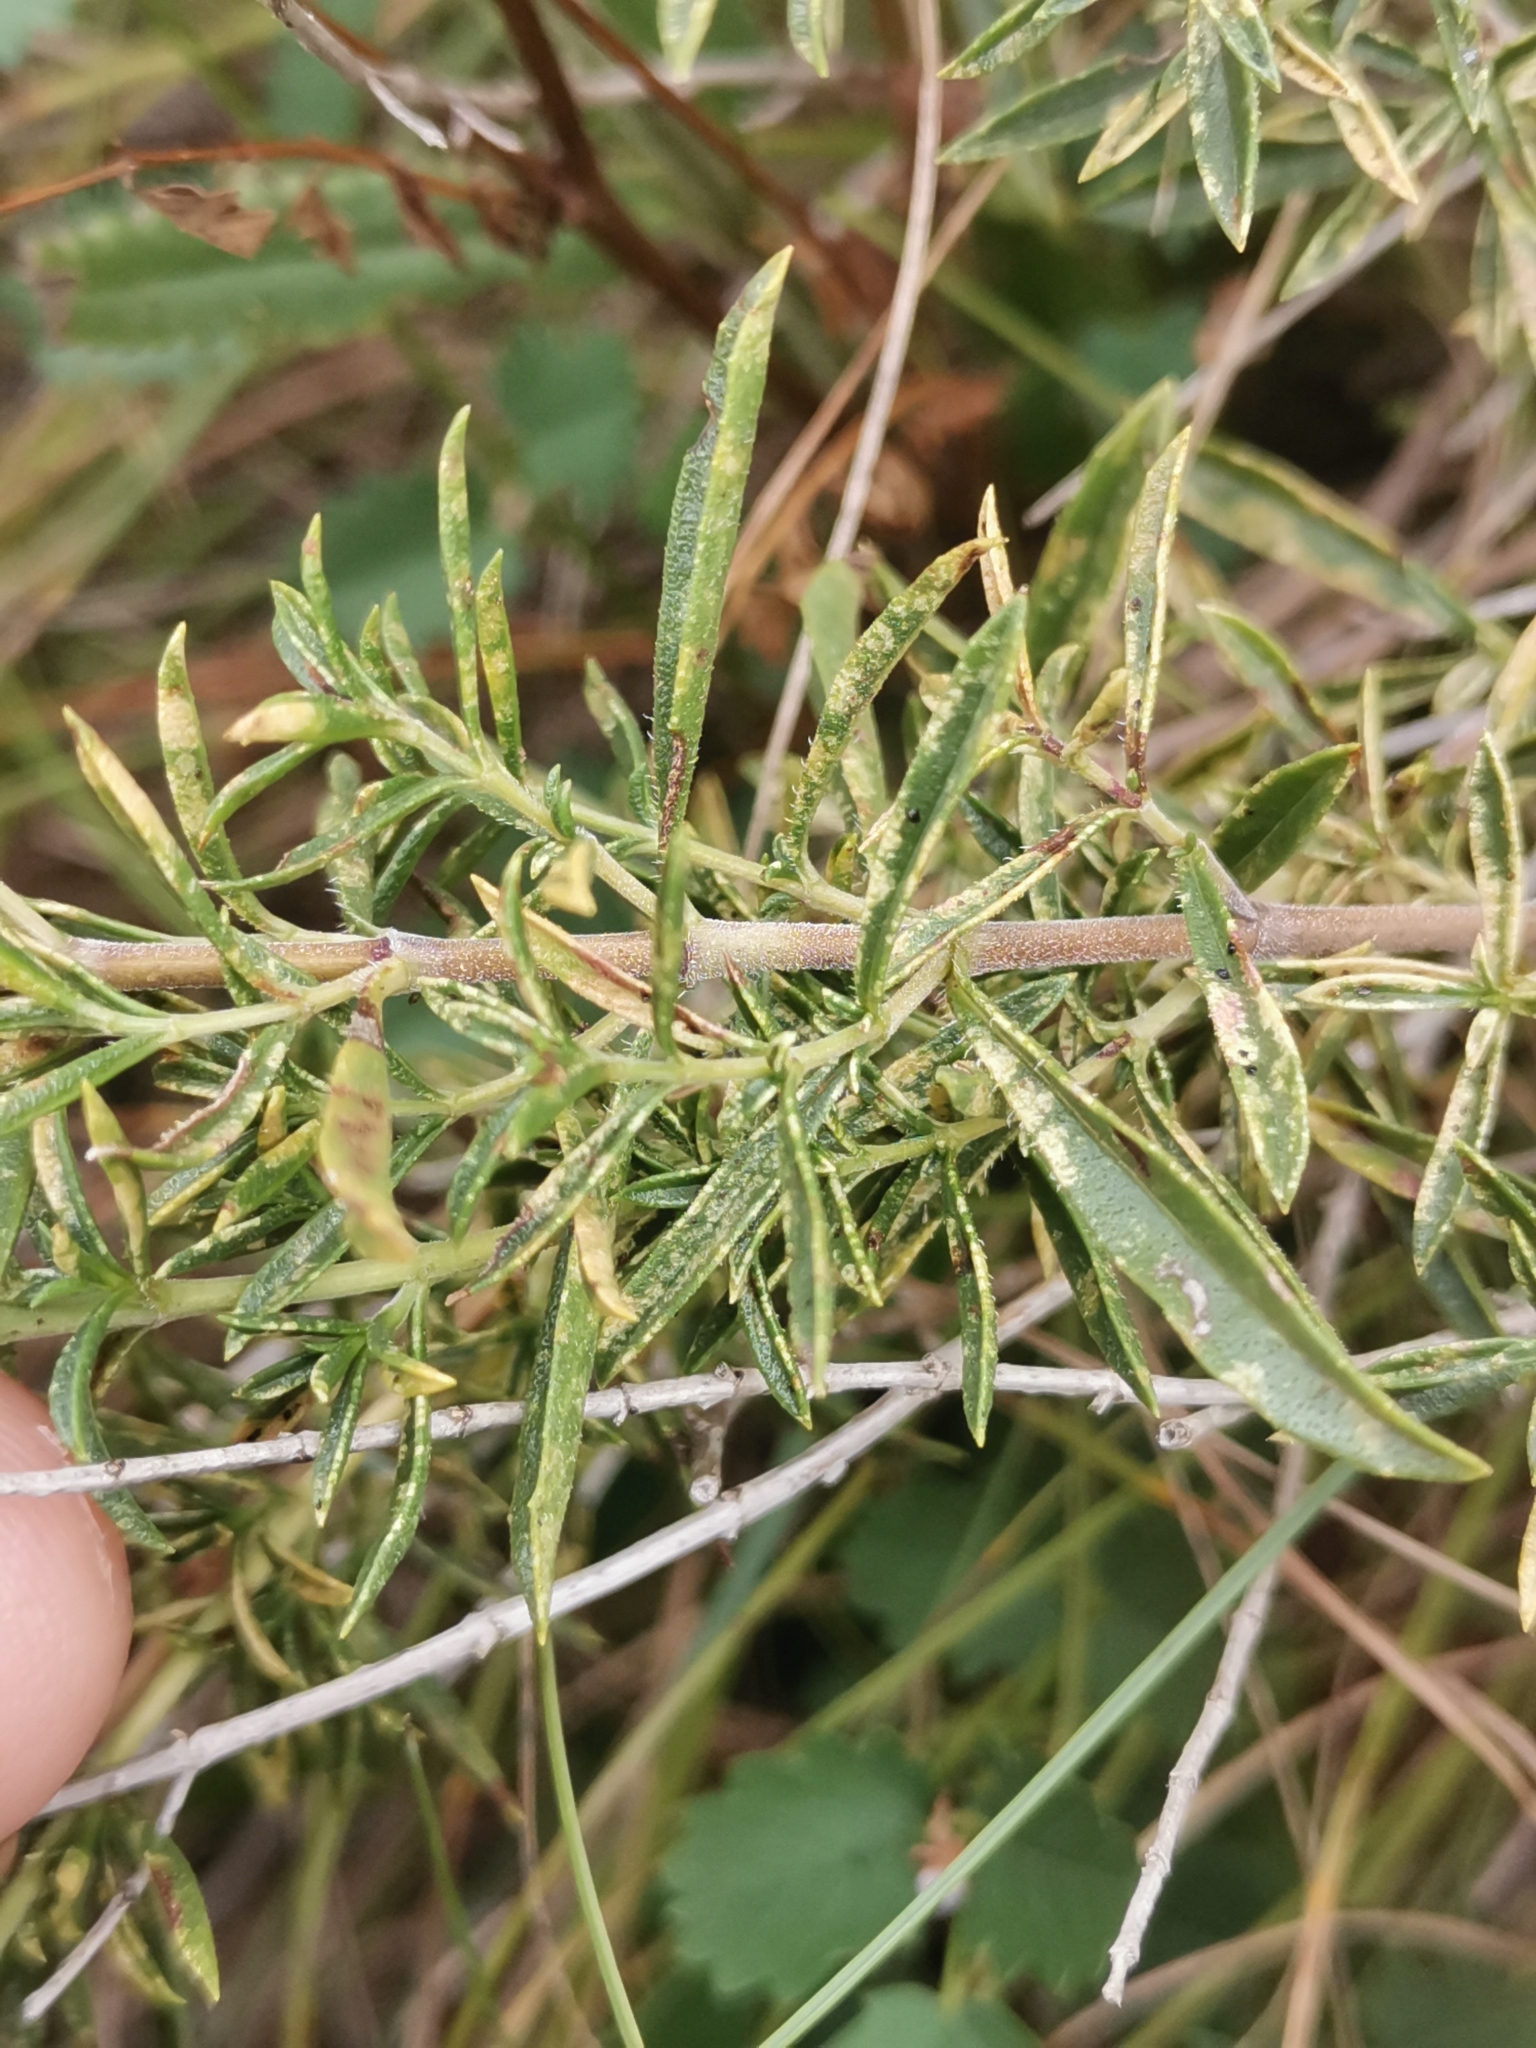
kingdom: Plantae
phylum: Tracheophyta
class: Magnoliopsida
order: Lamiales
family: Lamiaceae
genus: Satureja
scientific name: Satureja montana
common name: Winter savory
